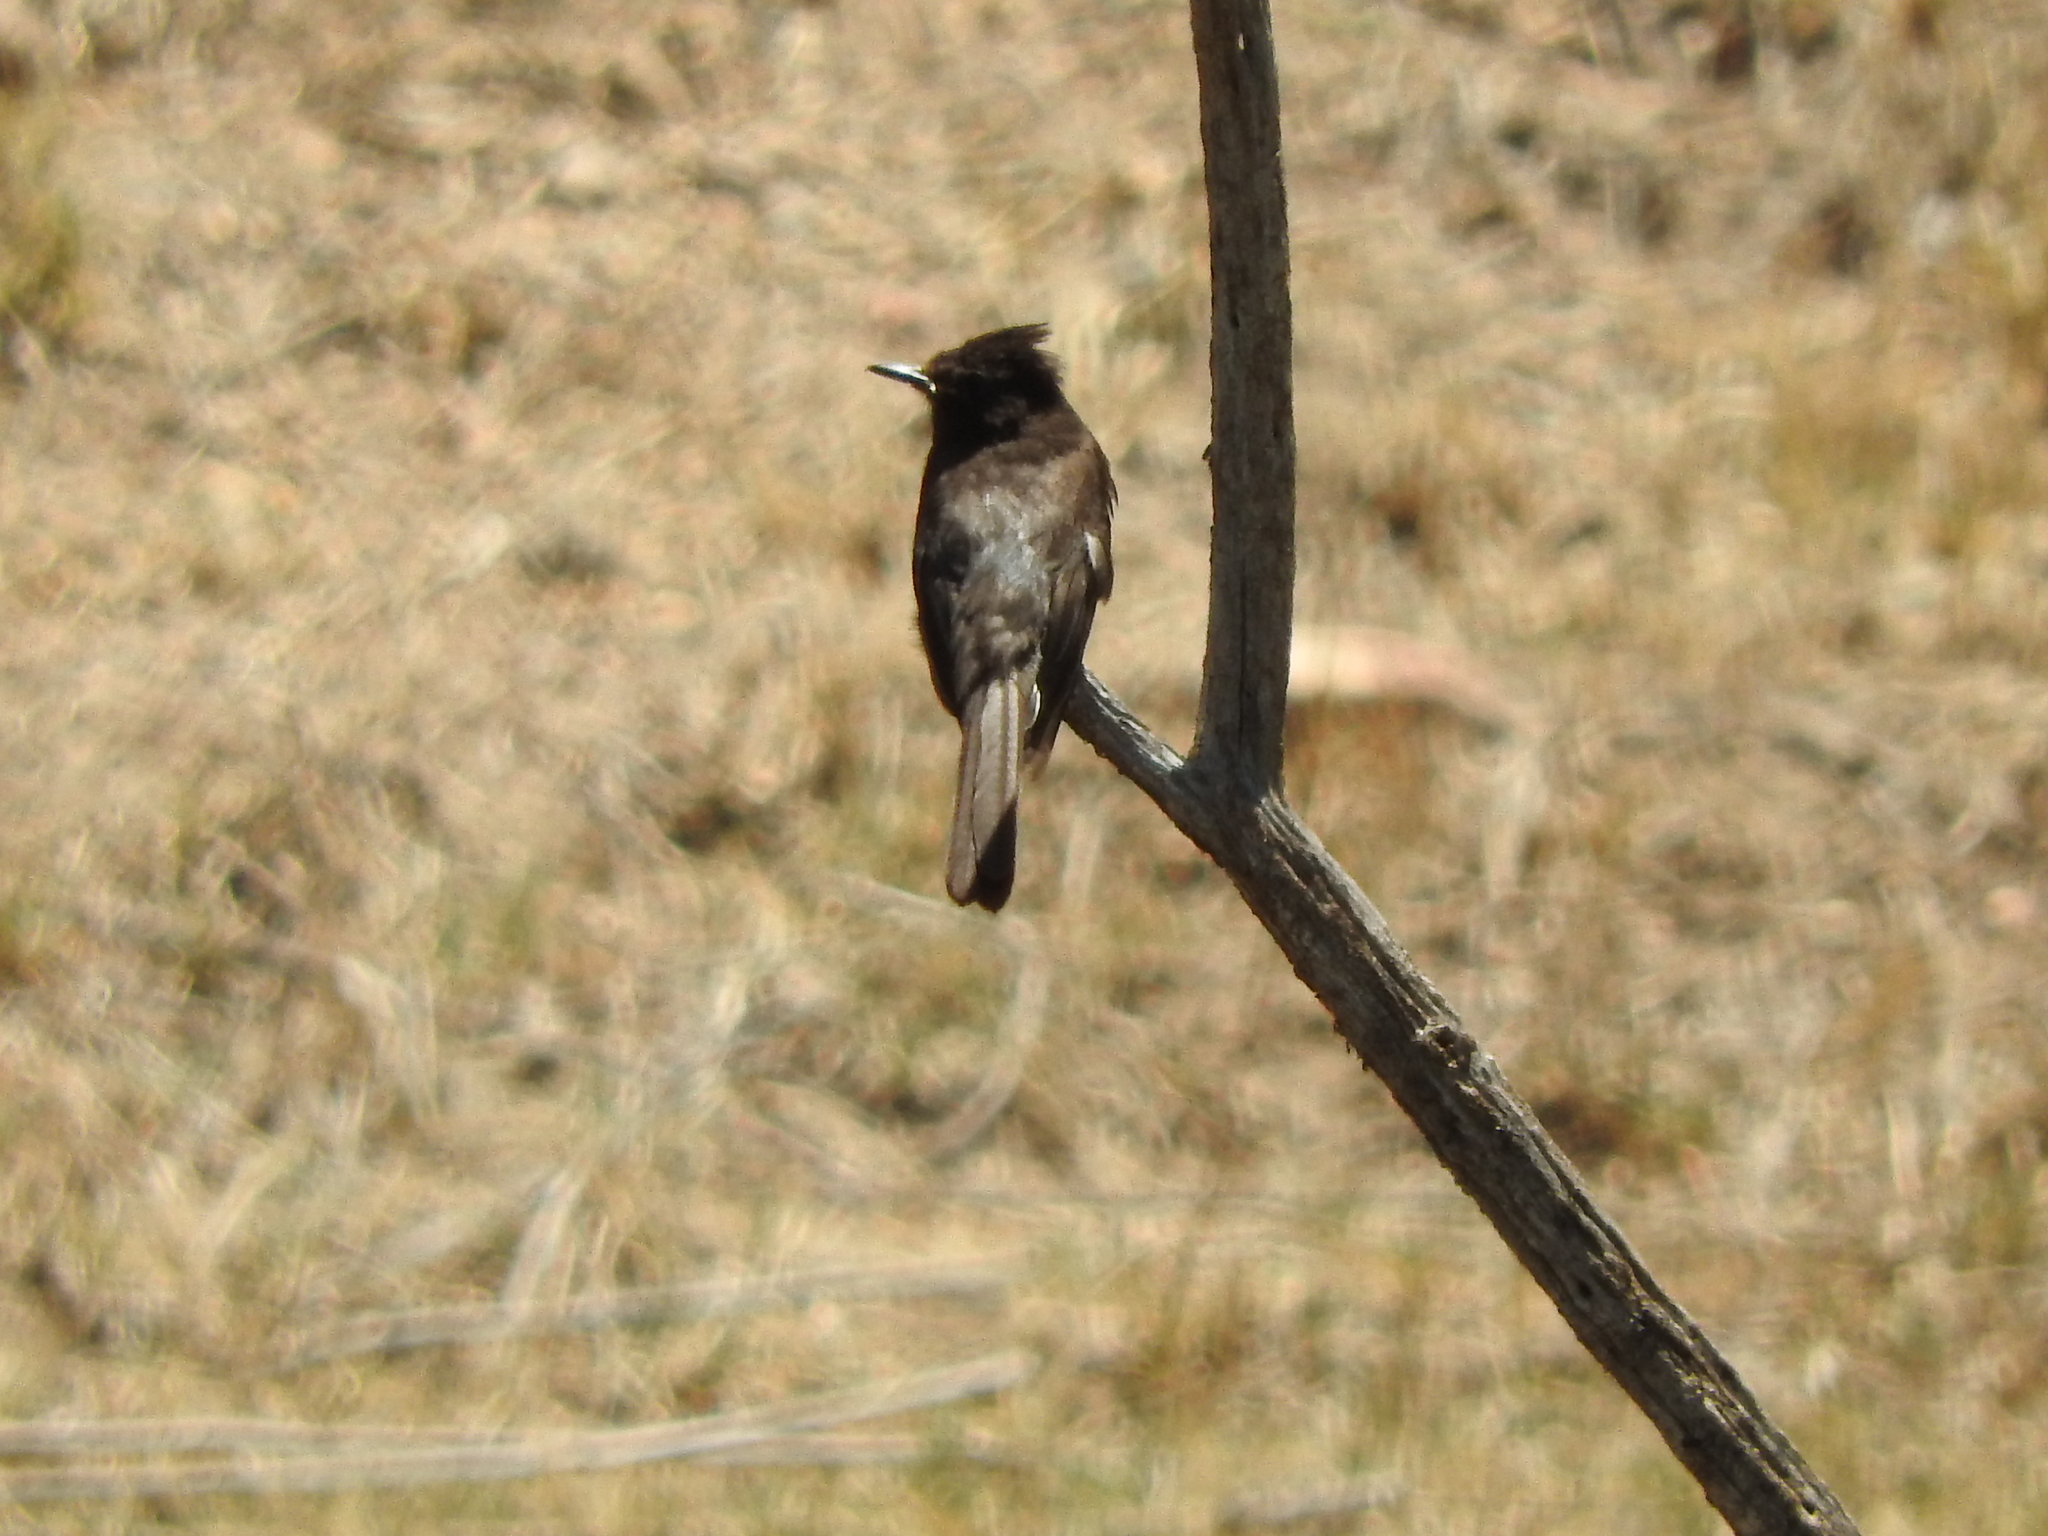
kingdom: Animalia
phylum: Chordata
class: Aves
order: Passeriformes
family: Tyrannidae
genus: Sayornis
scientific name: Sayornis nigricans
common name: Black phoebe
